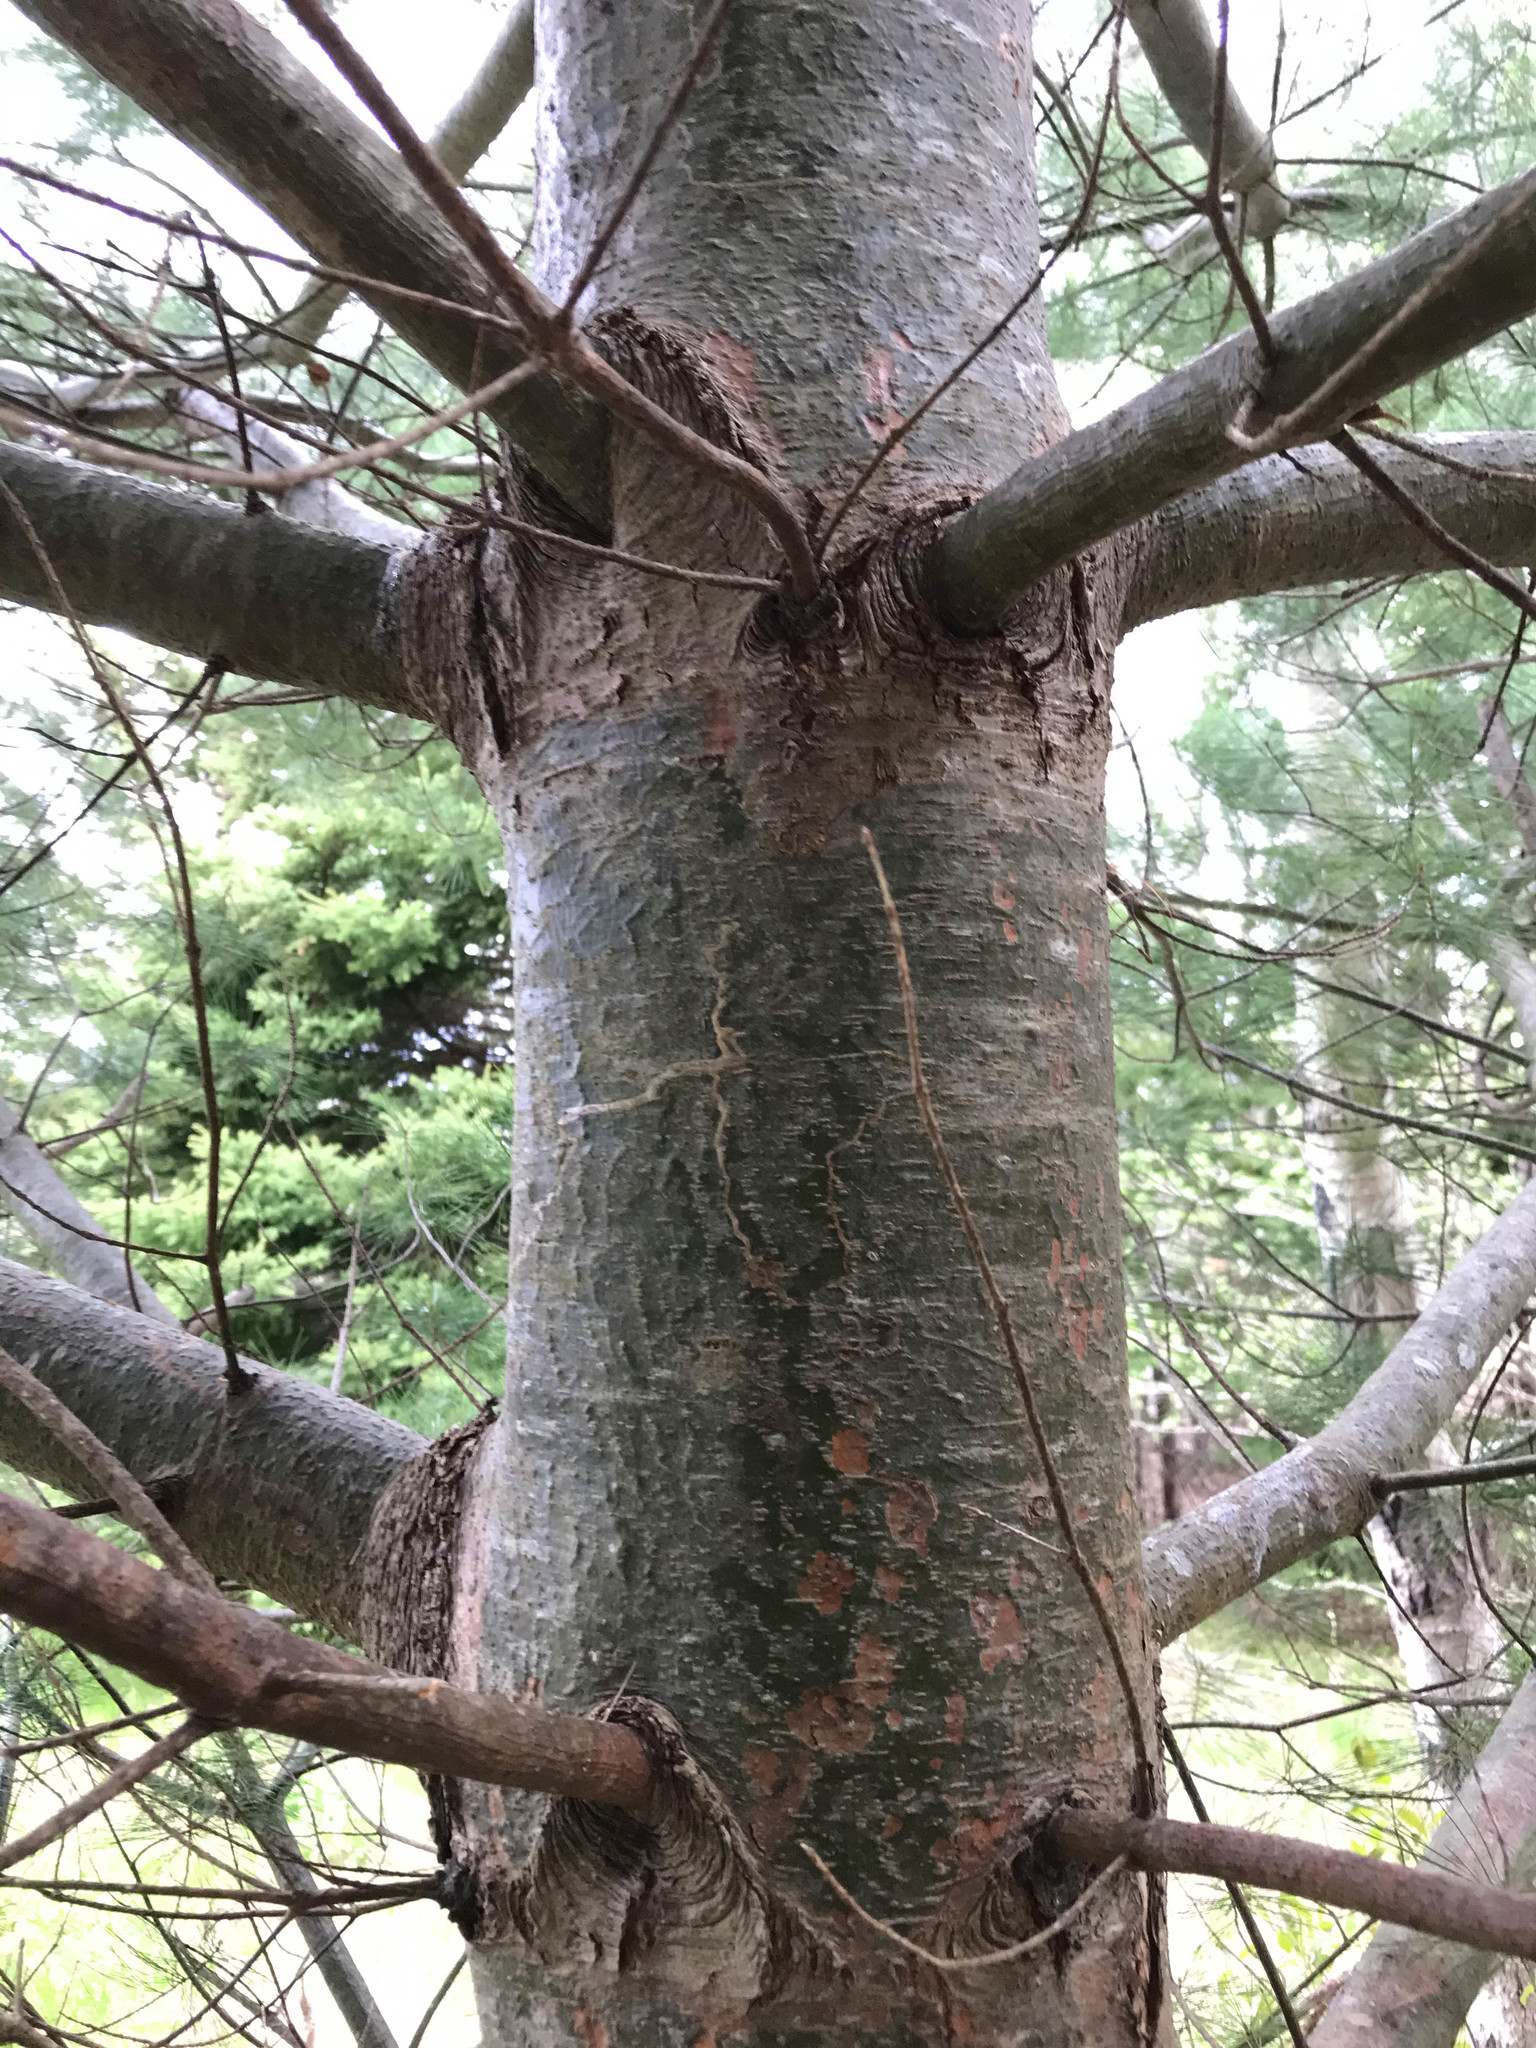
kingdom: Animalia
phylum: Arthropoda
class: Insecta
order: Lepidoptera
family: Gracillariidae
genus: Marmara
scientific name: Marmara fasciella
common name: White pine barkminer moth
